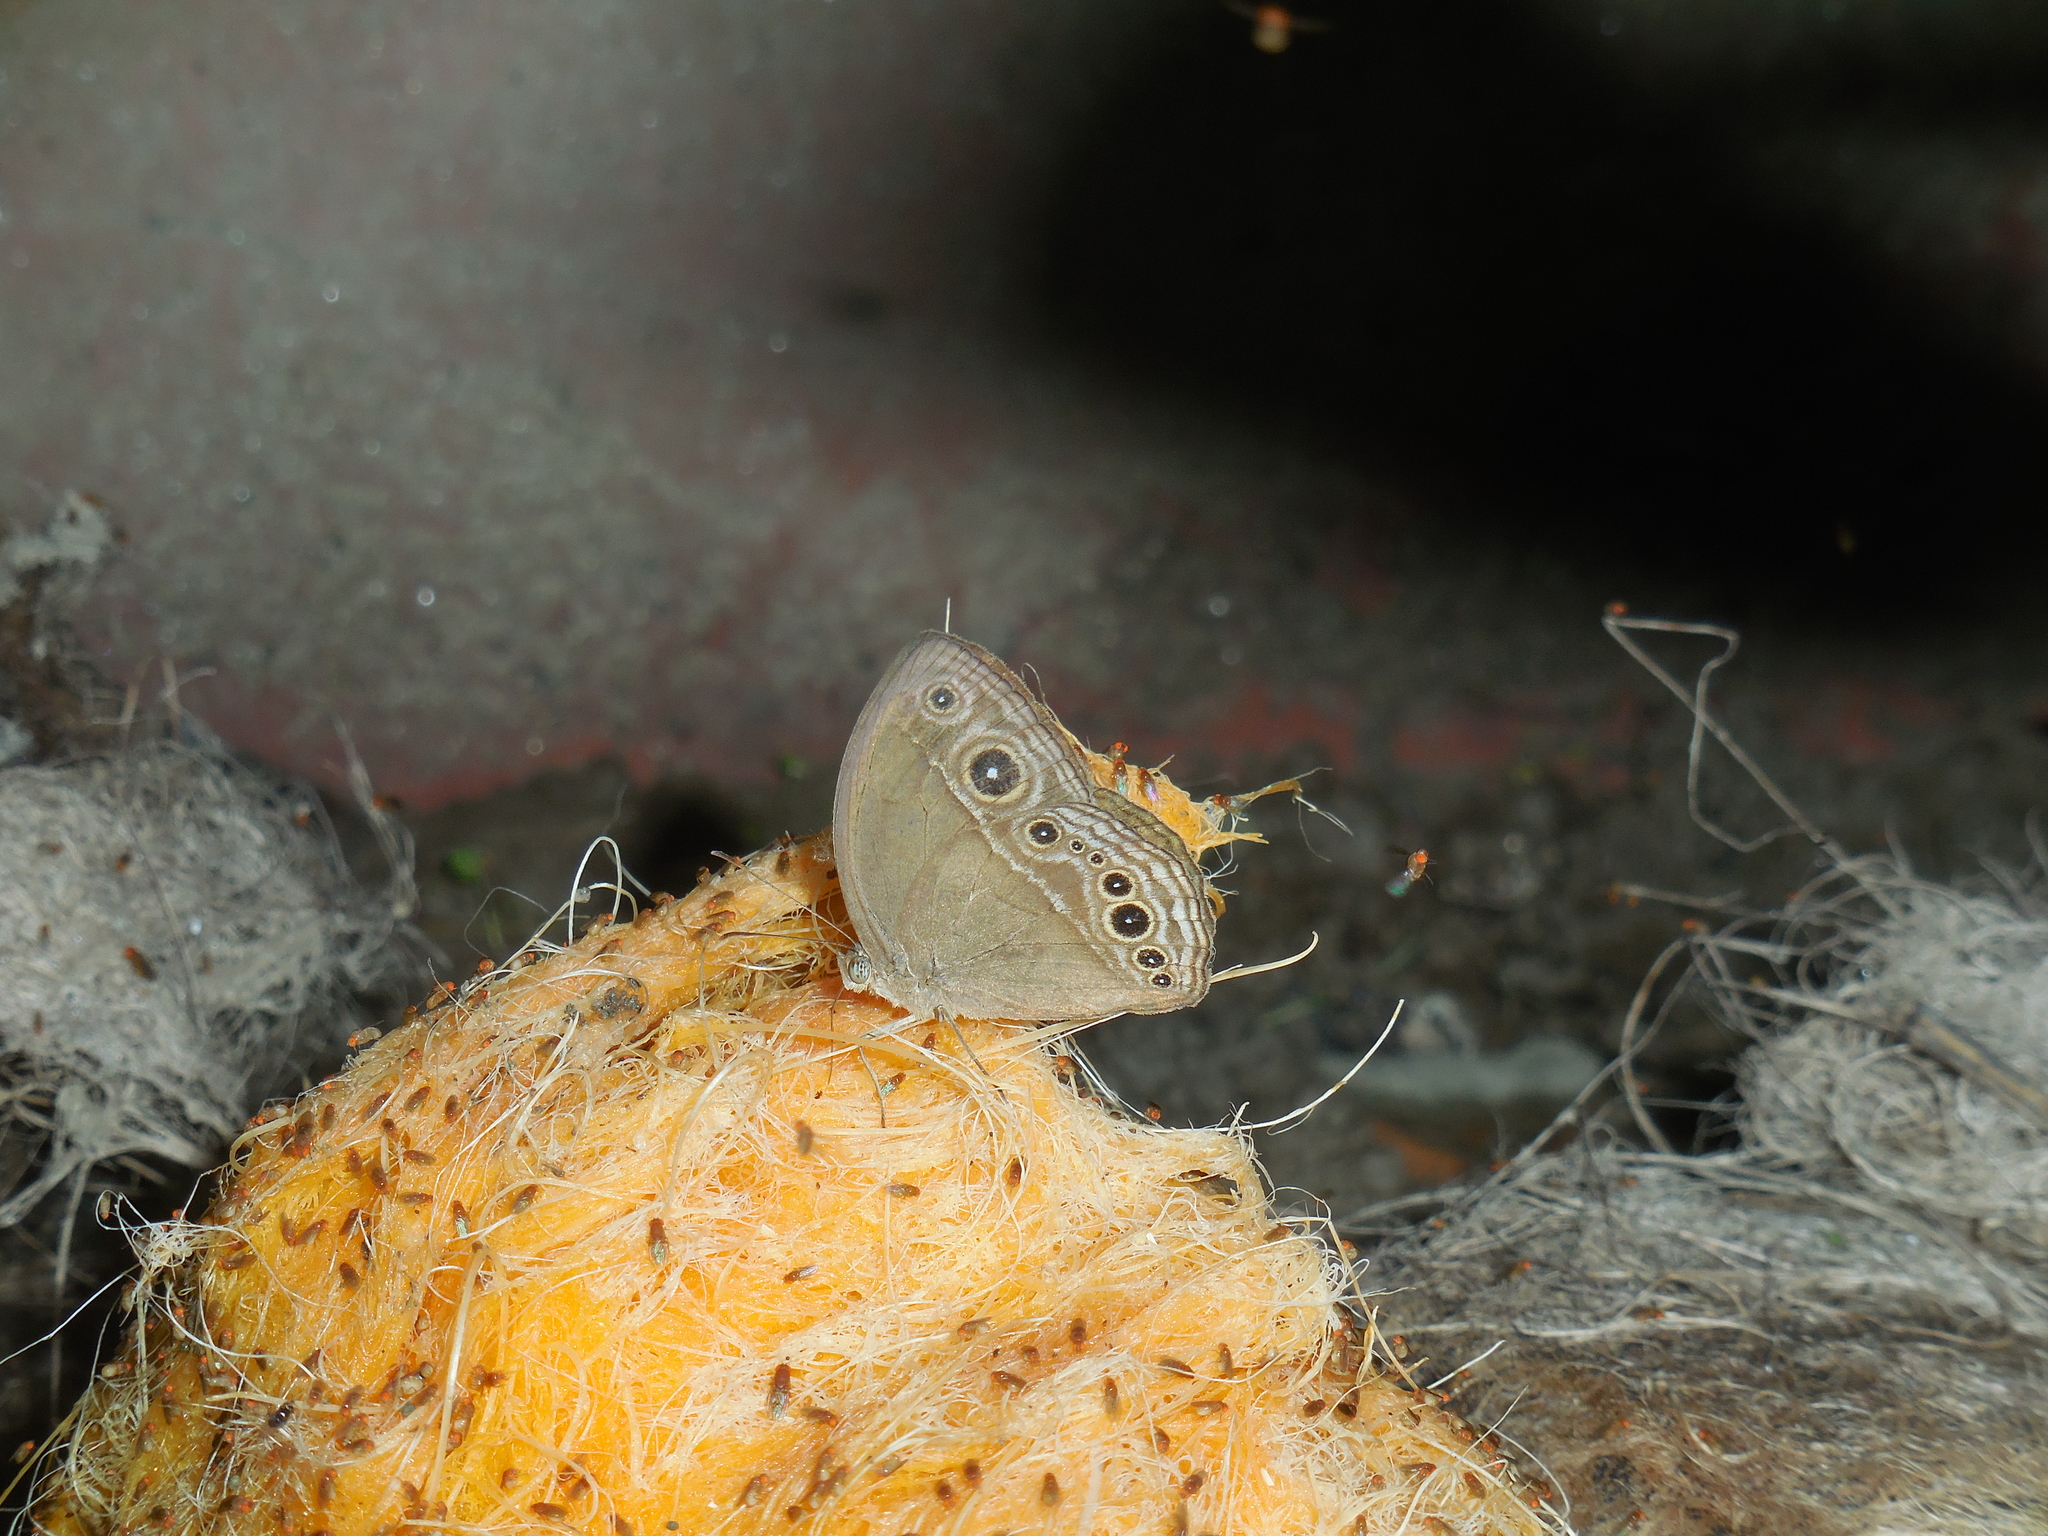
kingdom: Animalia
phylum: Arthropoda
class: Insecta
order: Lepidoptera
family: Nymphalidae
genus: Mycalesis
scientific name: Mycalesis mineus
